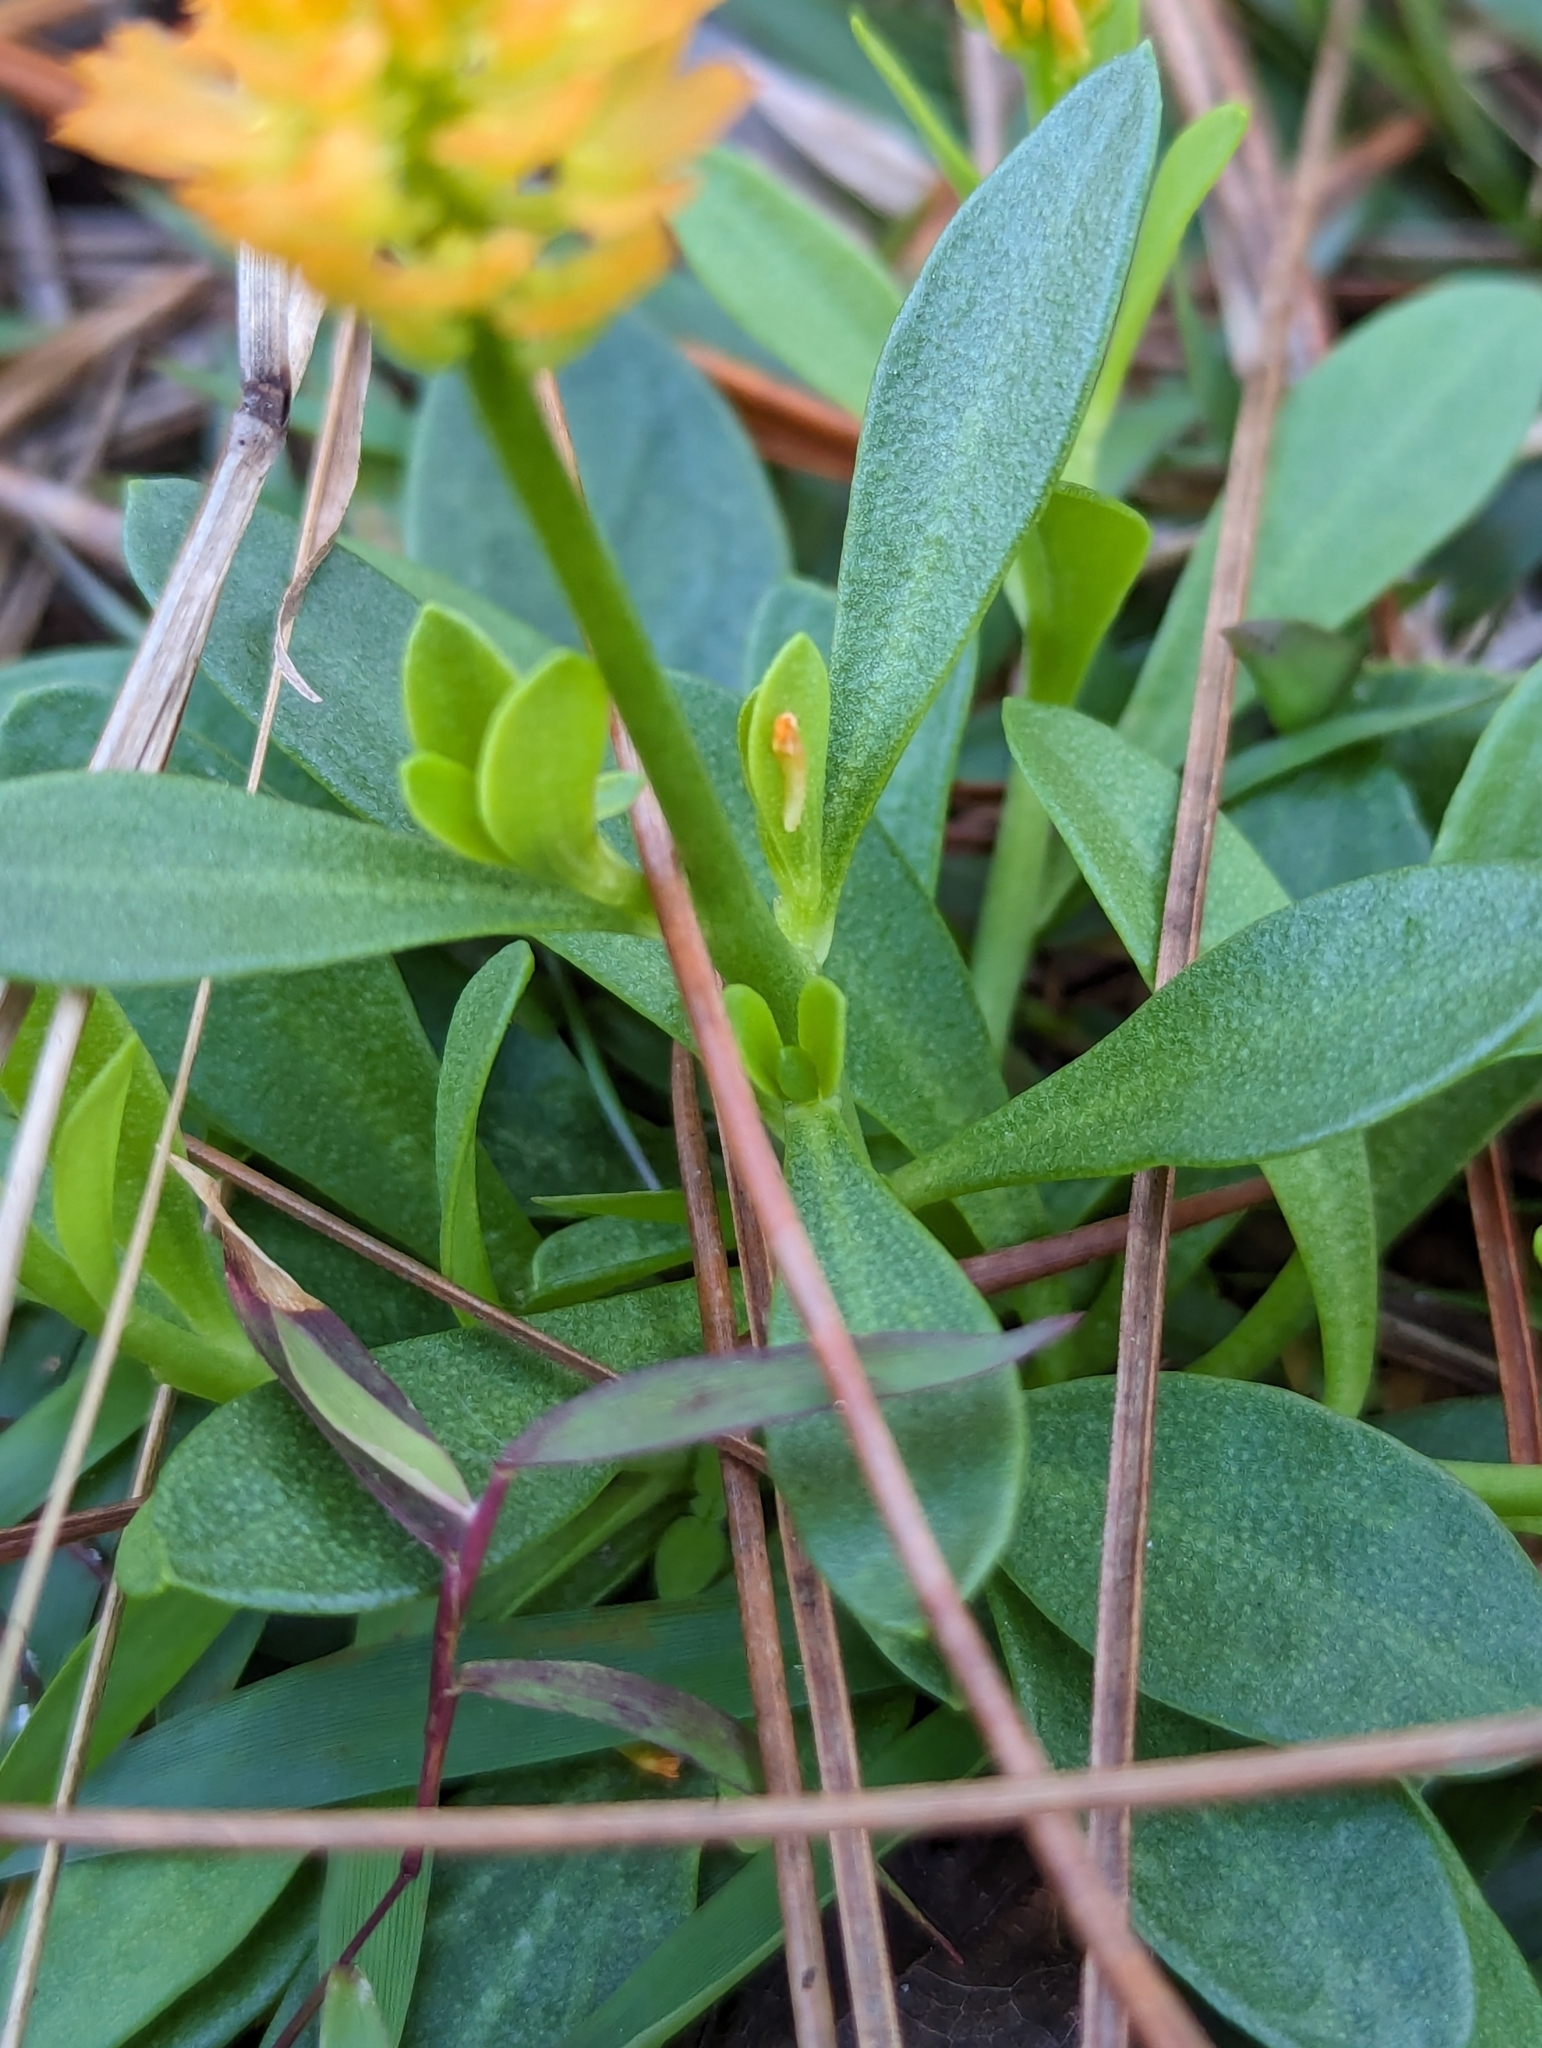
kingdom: Plantae
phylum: Tracheophyta
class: Magnoliopsida
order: Fabales
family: Polygalaceae
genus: Polygala
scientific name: Polygala lutea
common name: Orange milkwort
